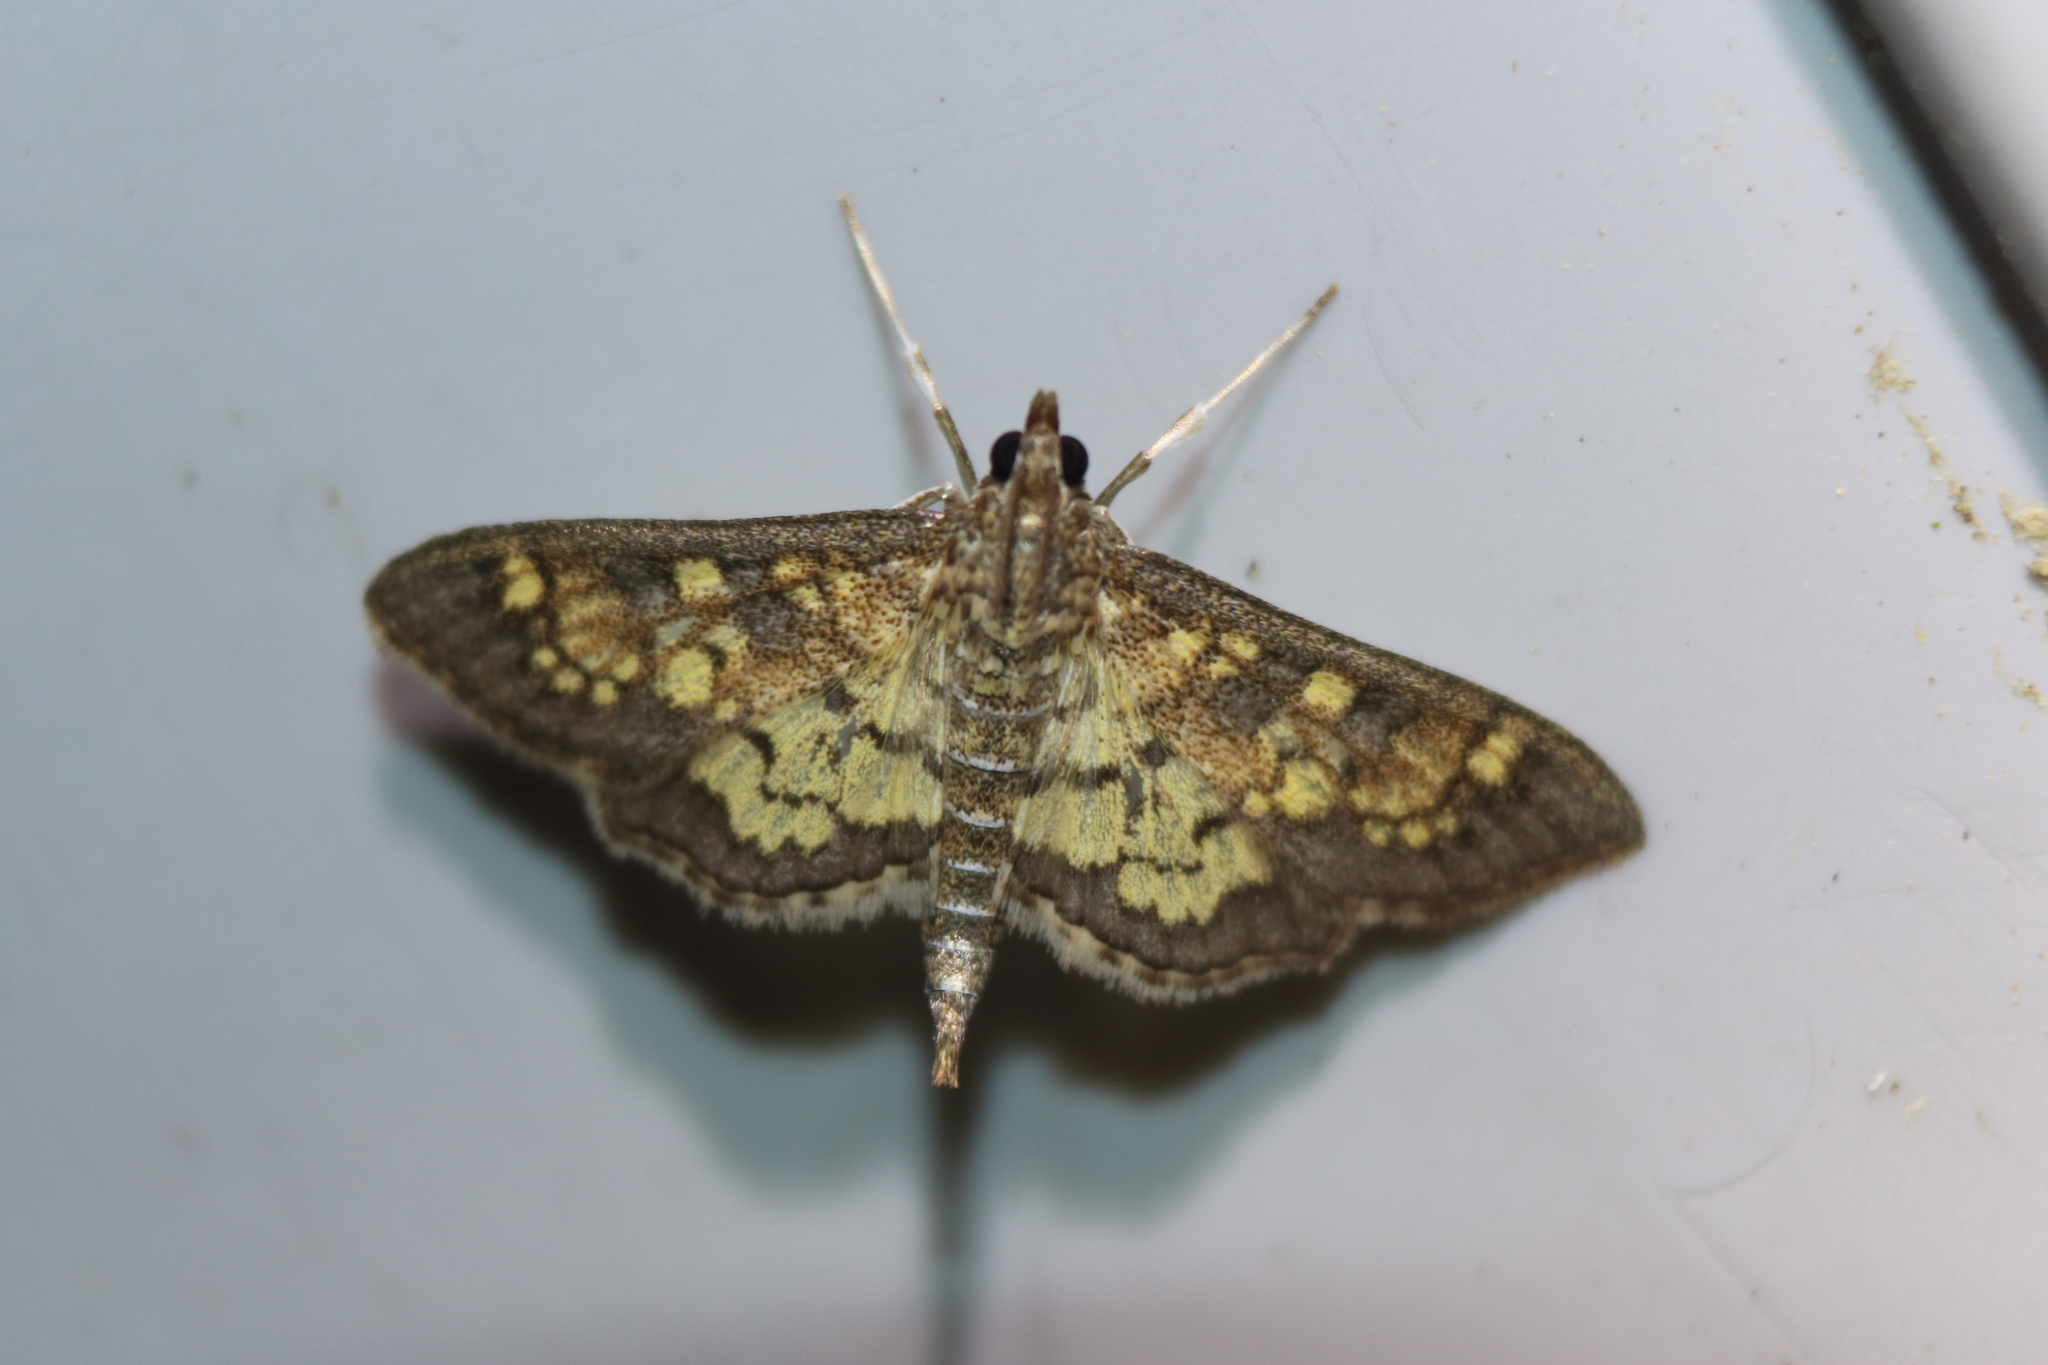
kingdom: Animalia
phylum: Arthropoda
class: Insecta
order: Lepidoptera
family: Crambidae
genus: Epipagis
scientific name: Epipagis adipaloides
